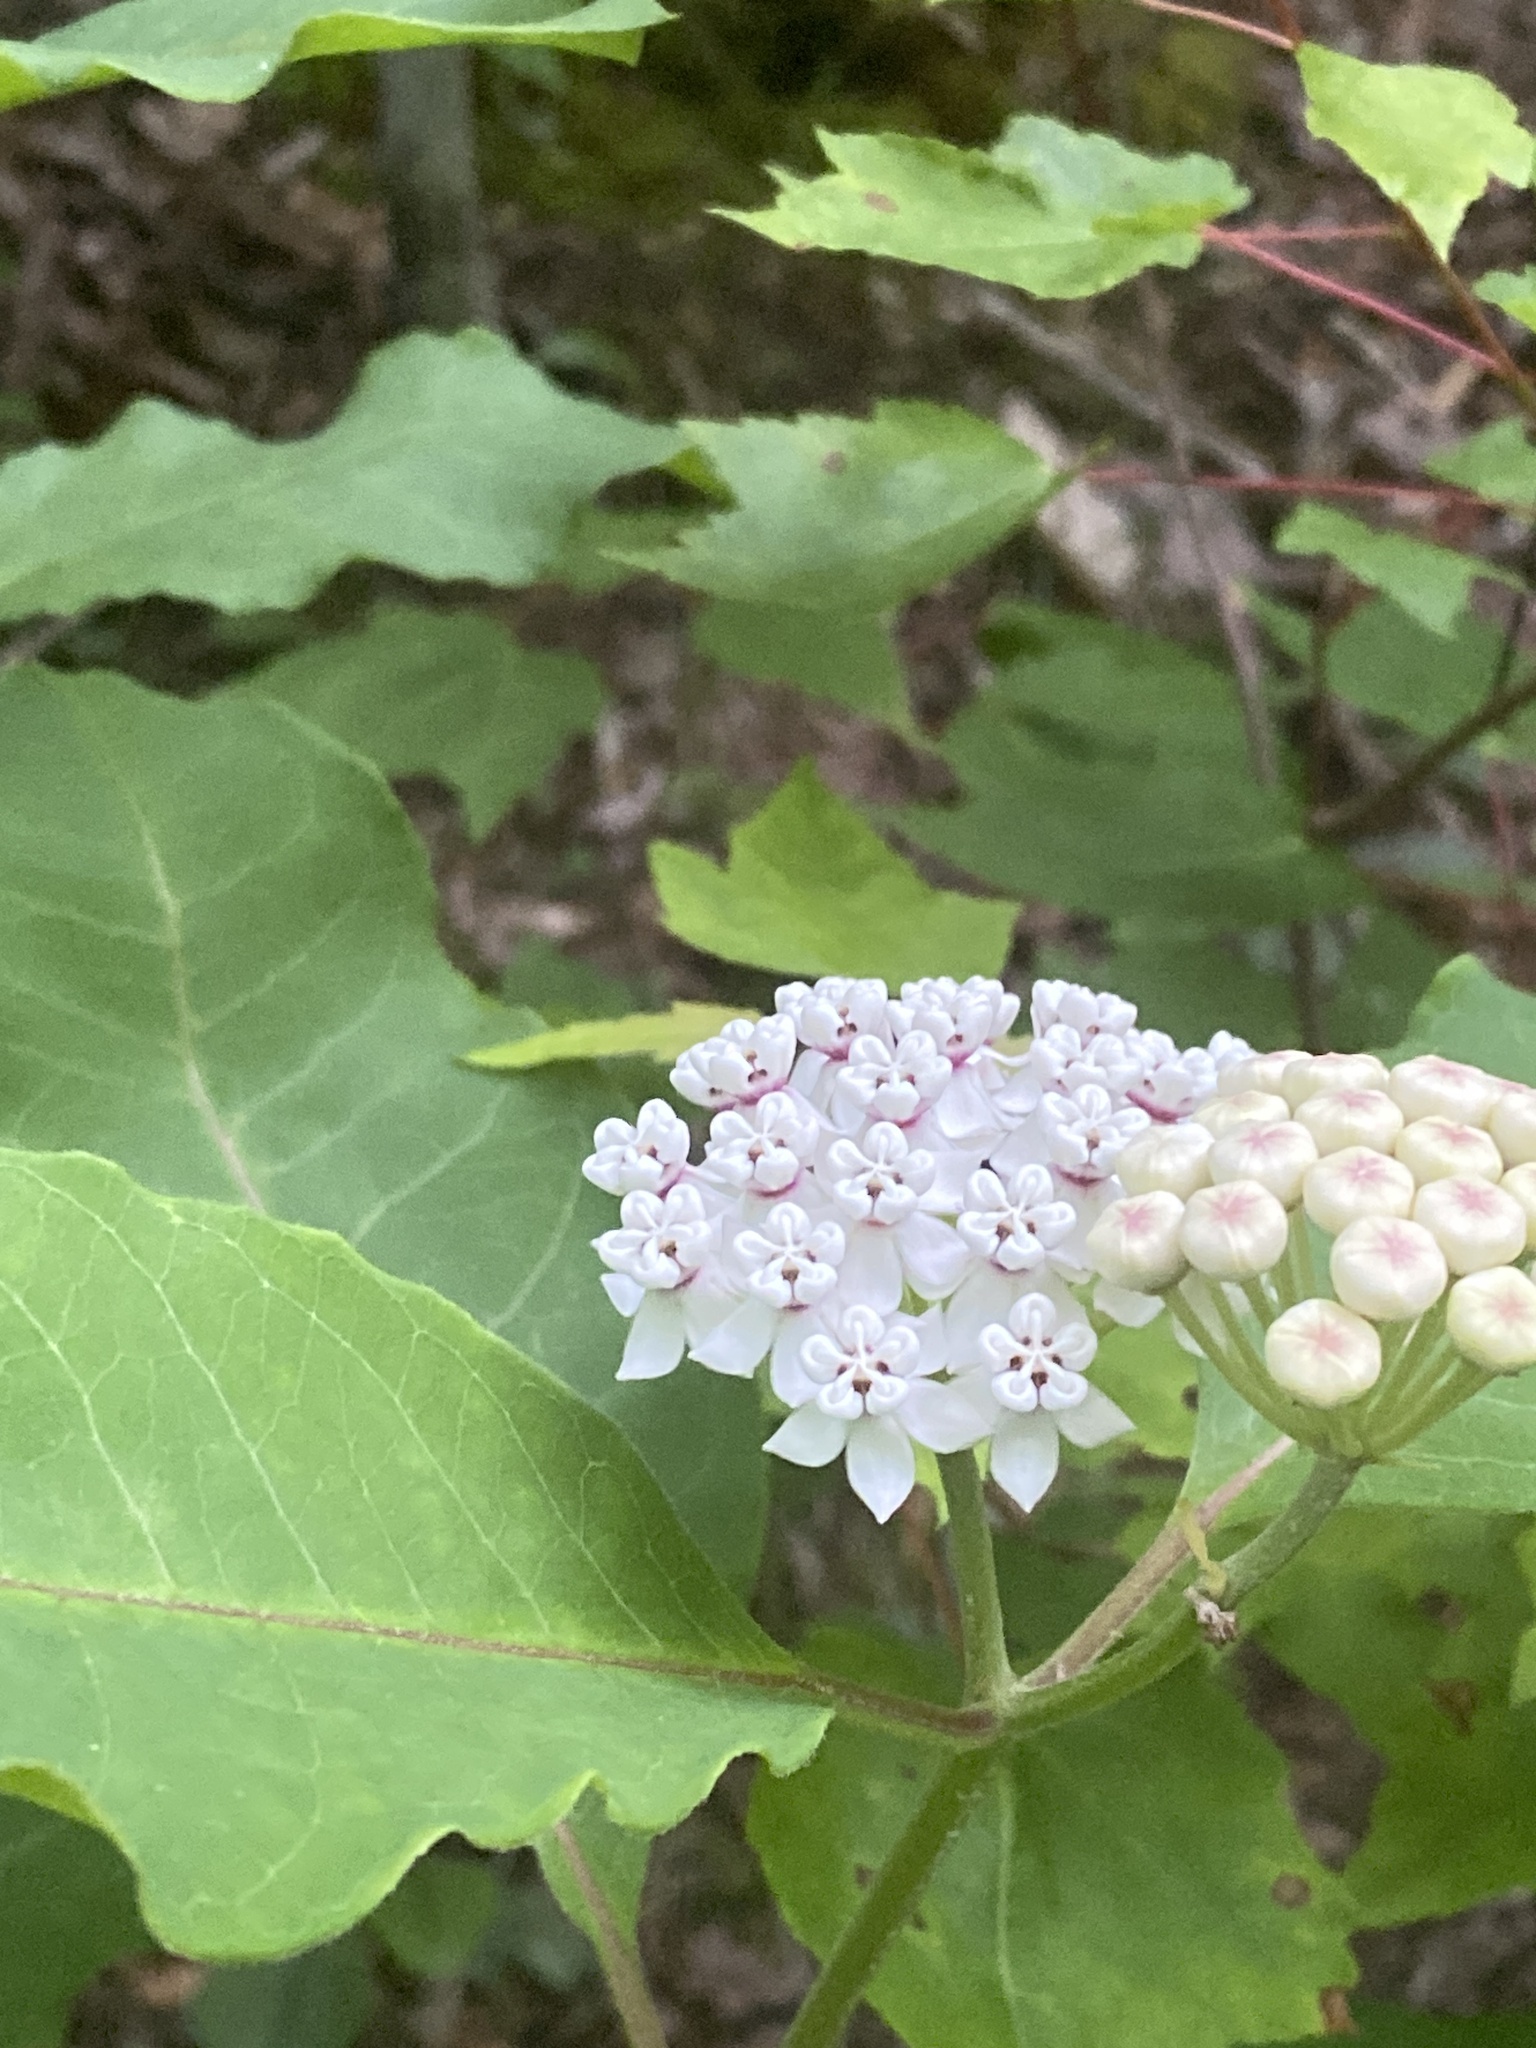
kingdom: Plantae
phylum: Tracheophyta
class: Magnoliopsida
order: Gentianales
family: Apocynaceae
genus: Asclepias
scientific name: Asclepias variegata
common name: Variegated milkweed
